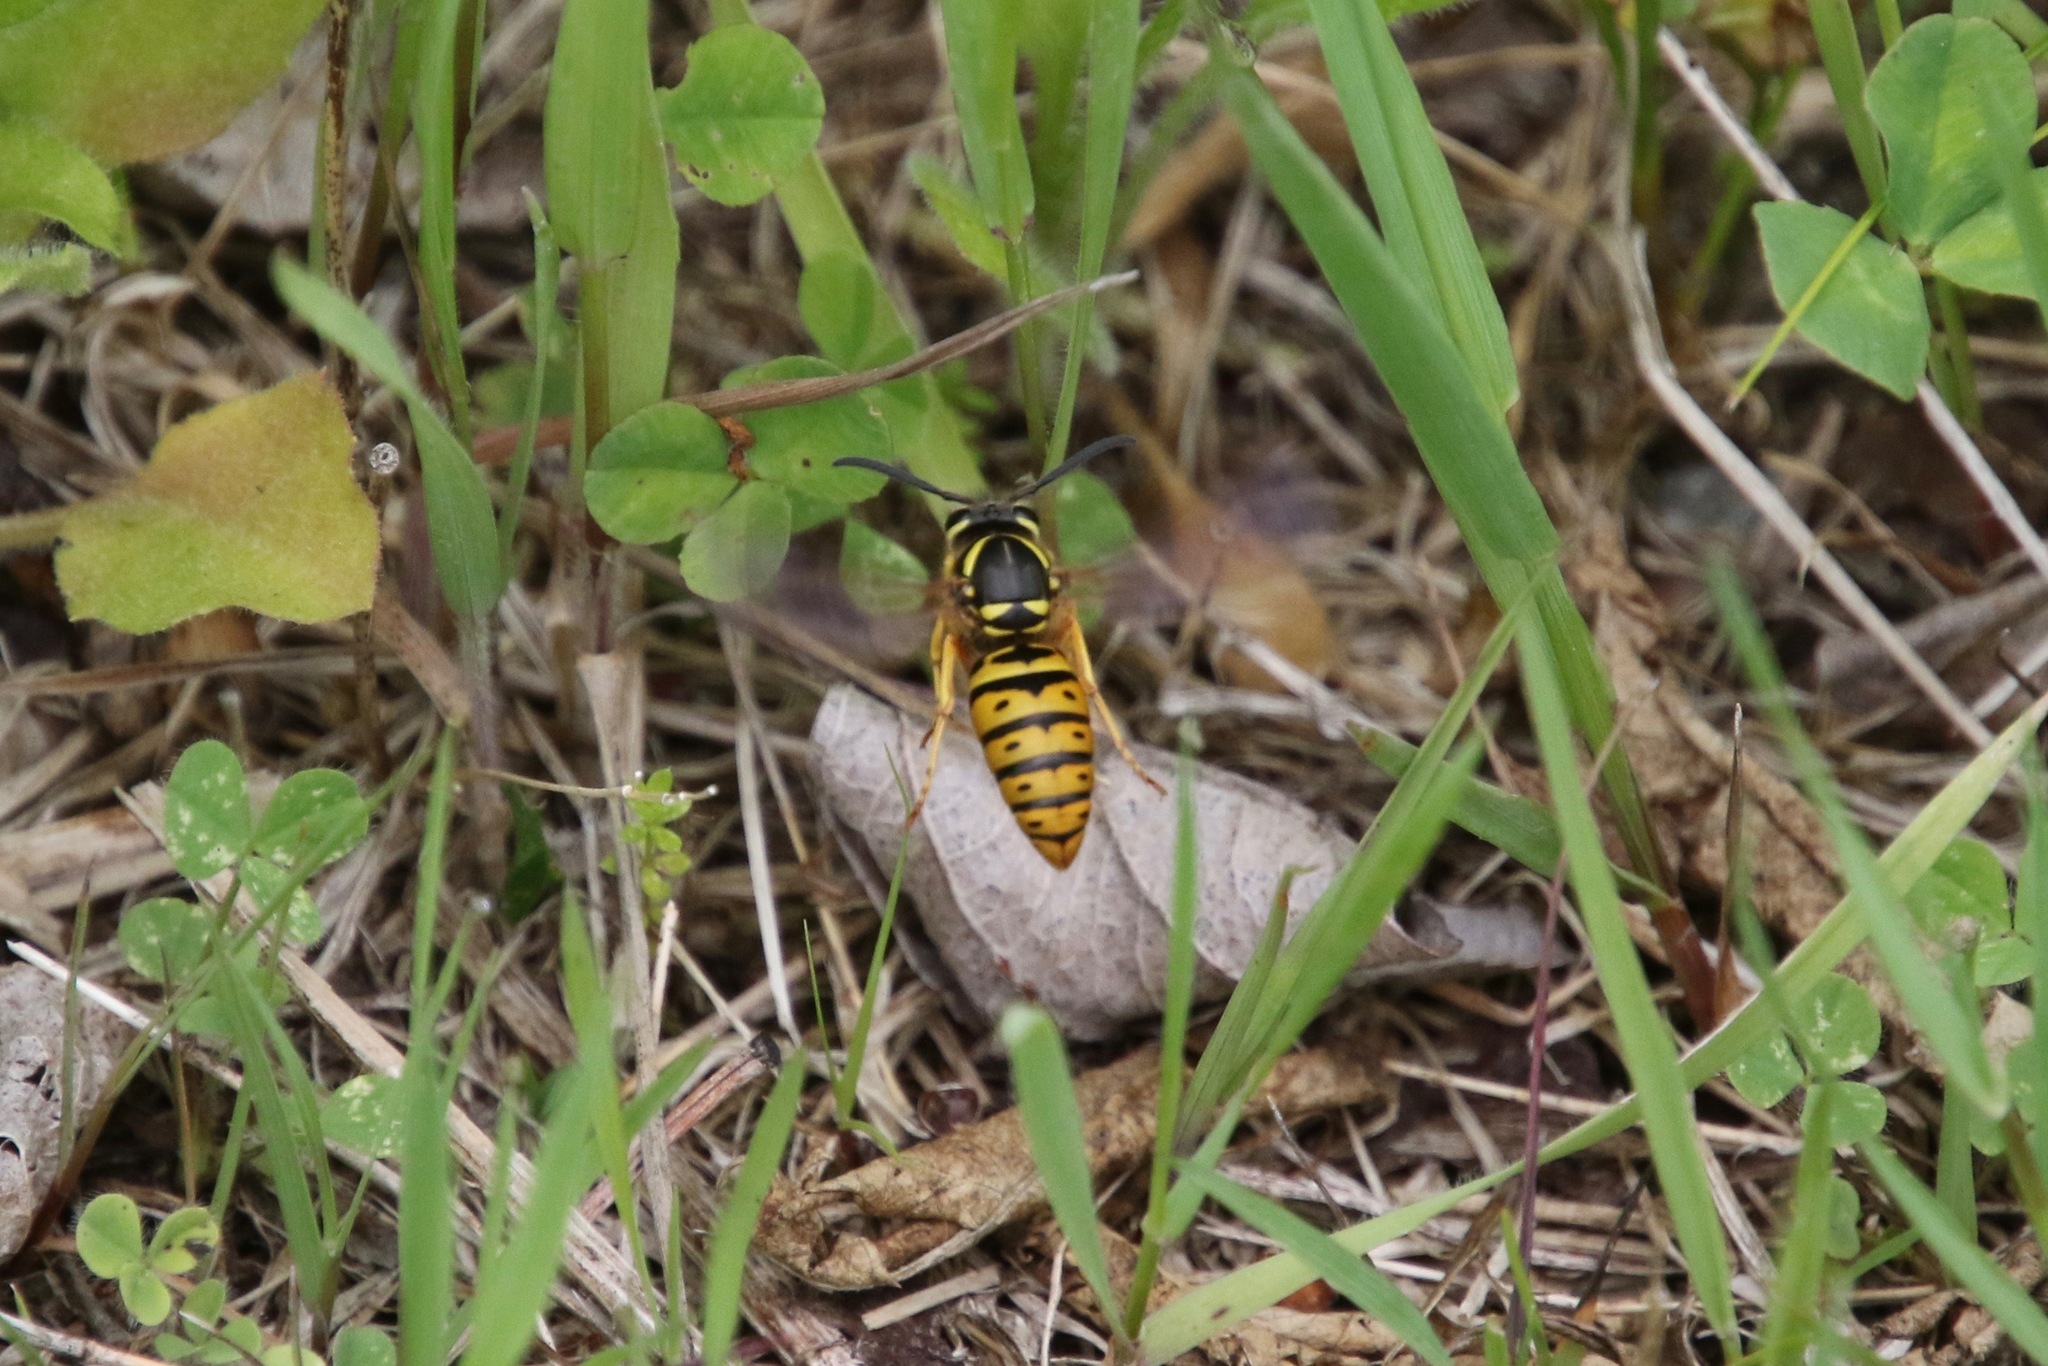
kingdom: Animalia
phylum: Arthropoda
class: Insecta
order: Hymenoptera
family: Vespidae
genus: Vespula
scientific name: Vespula maculifrons
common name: Eastern yellowjacket
